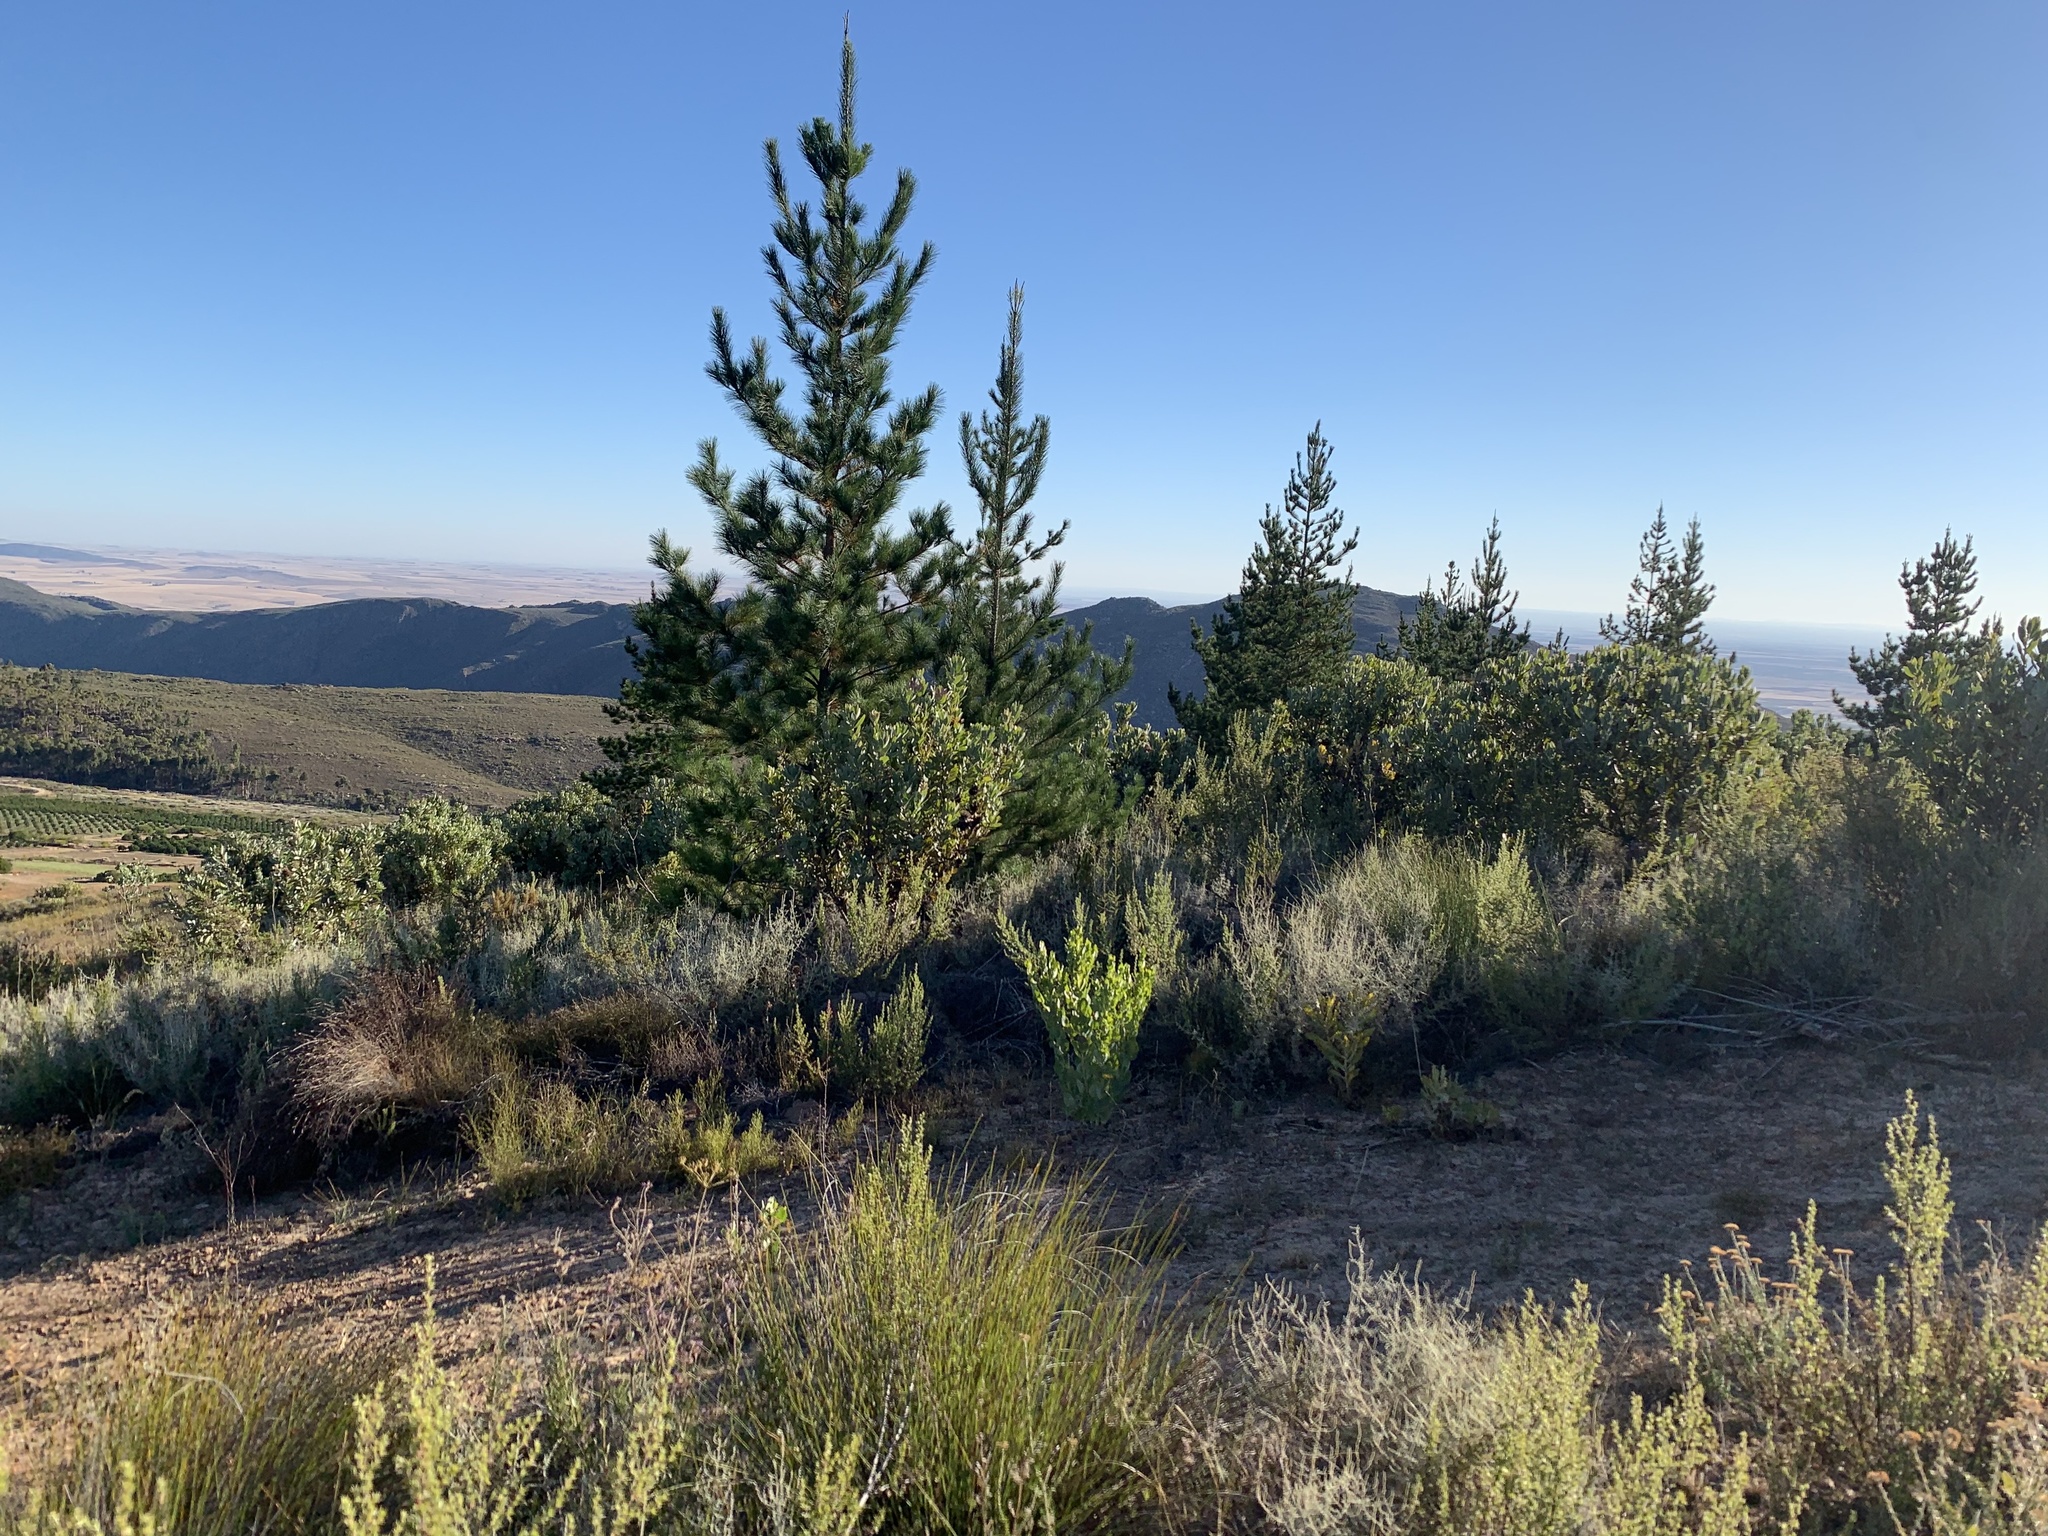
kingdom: Plantae
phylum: Tracheophyta
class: Pinopsida
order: Pinales
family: Pinaceae
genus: Pinus
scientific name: Pinus radiata
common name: Monterey pine
